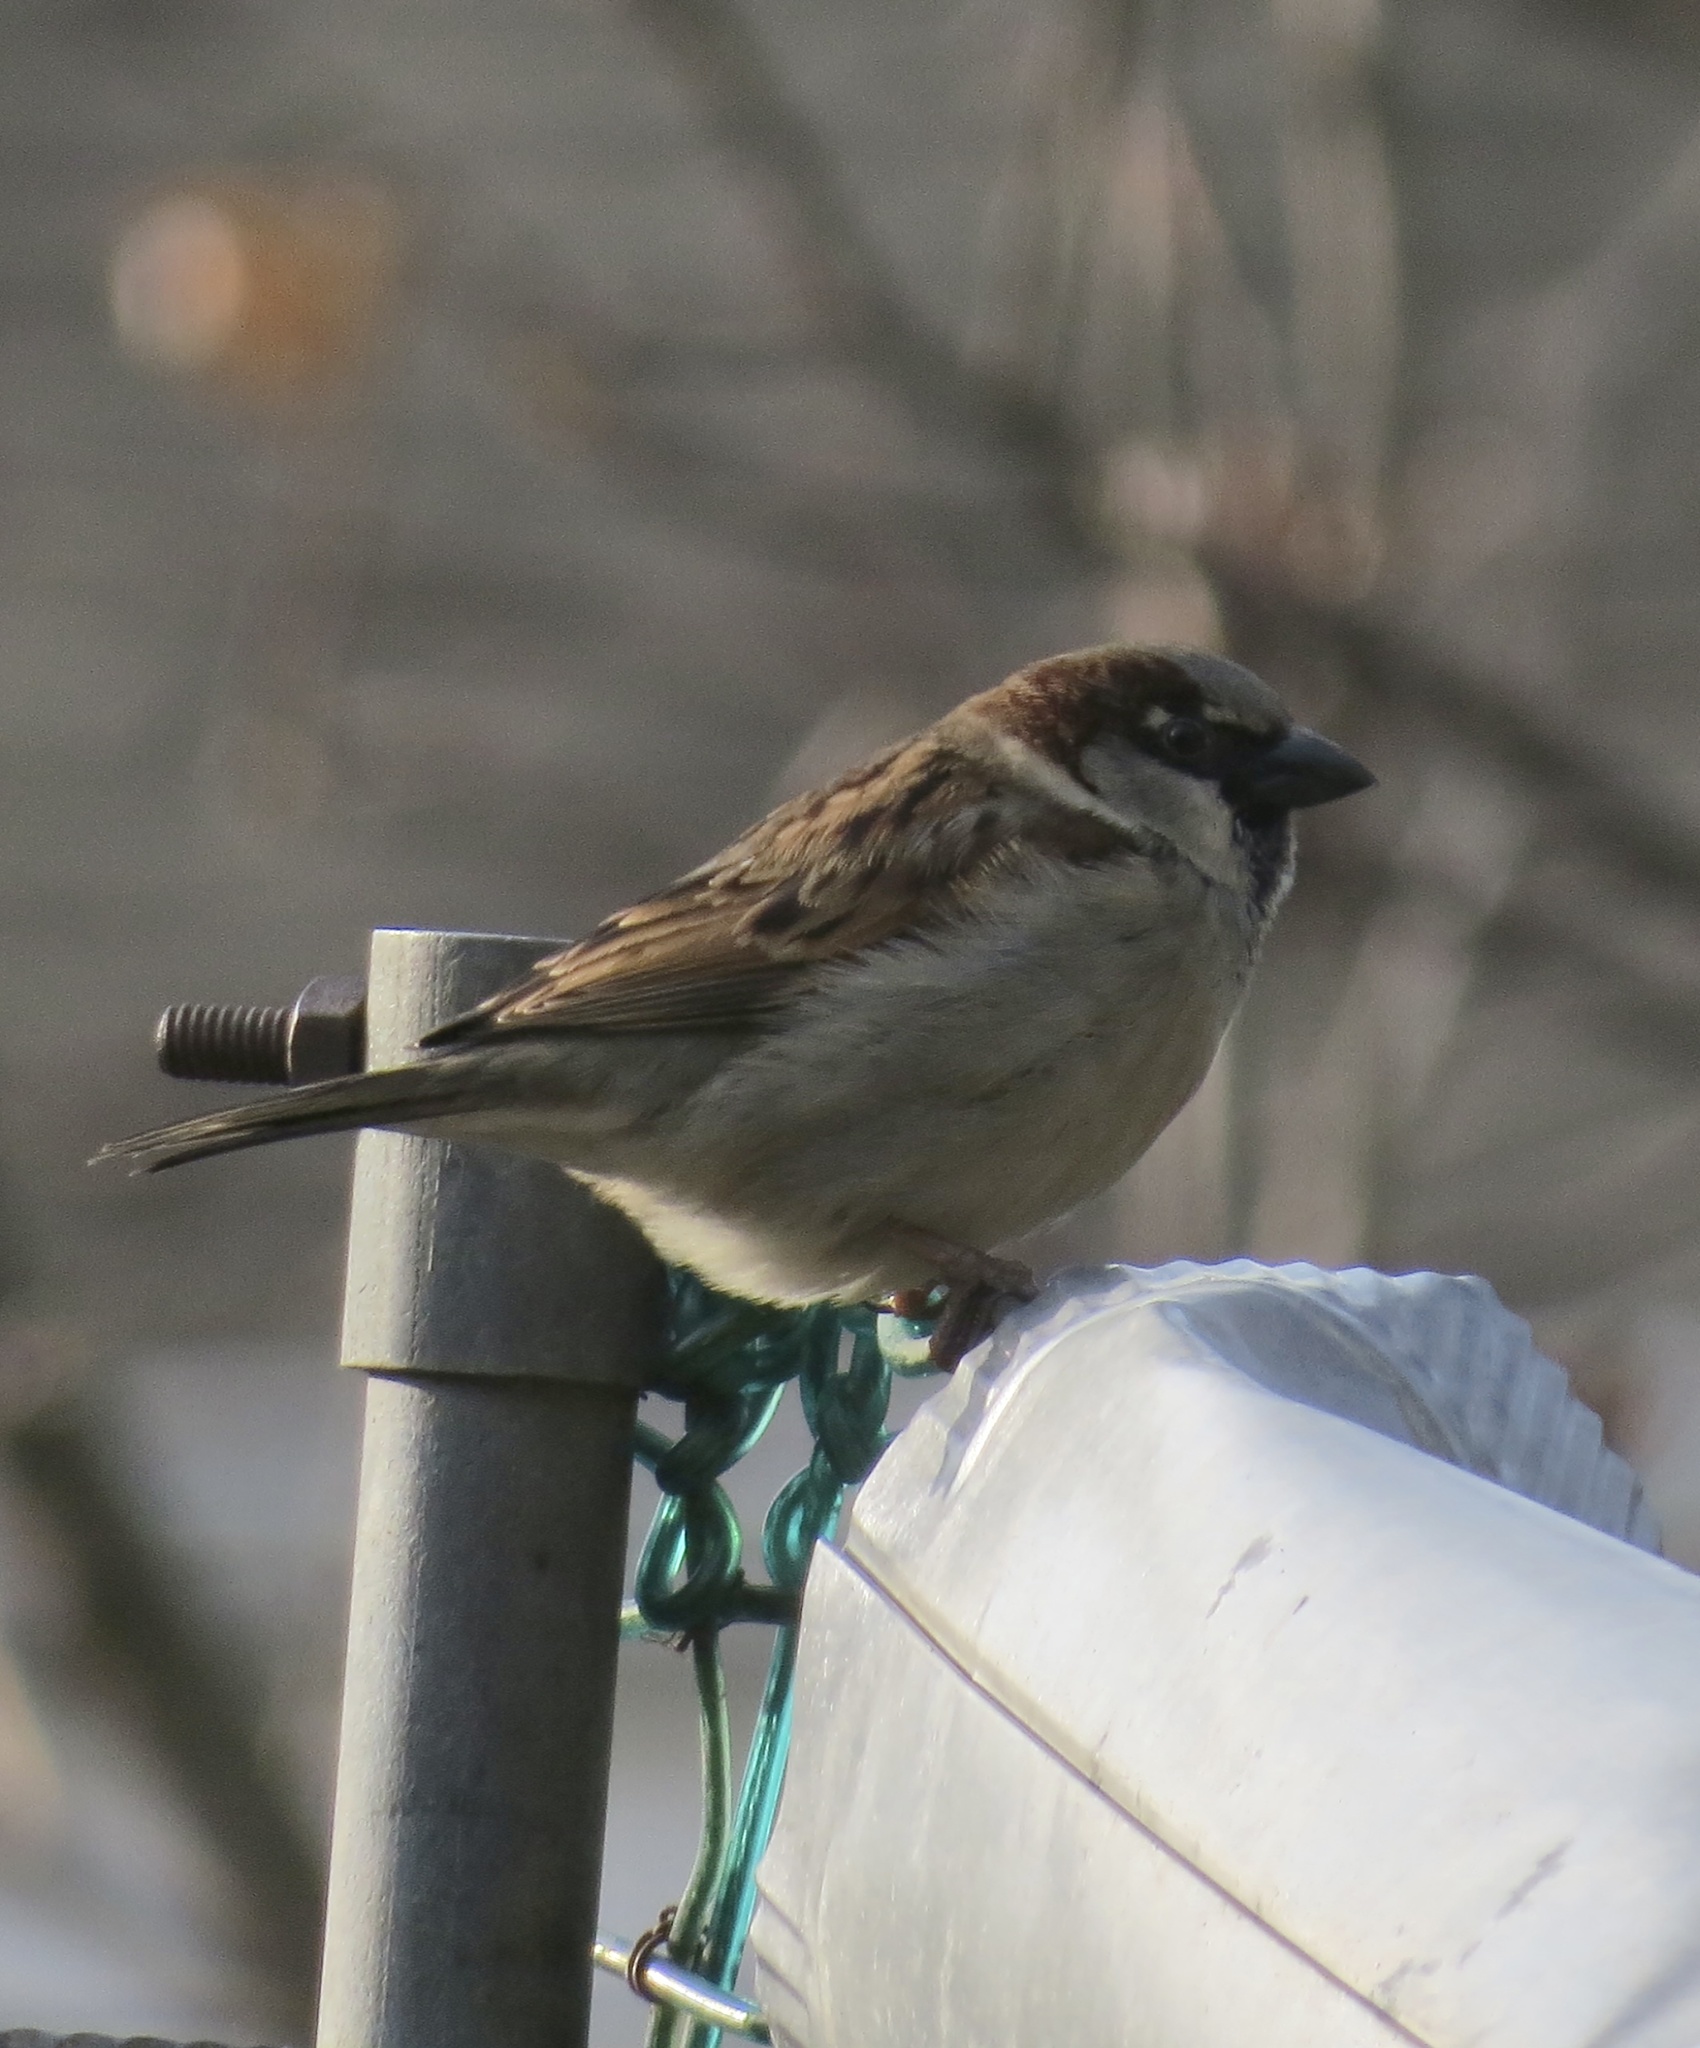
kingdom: Animalia
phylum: Chordata
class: Aves
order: Passeriformes
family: Passeridae
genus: Passer
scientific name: Passer domesticus
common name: House sparrow
